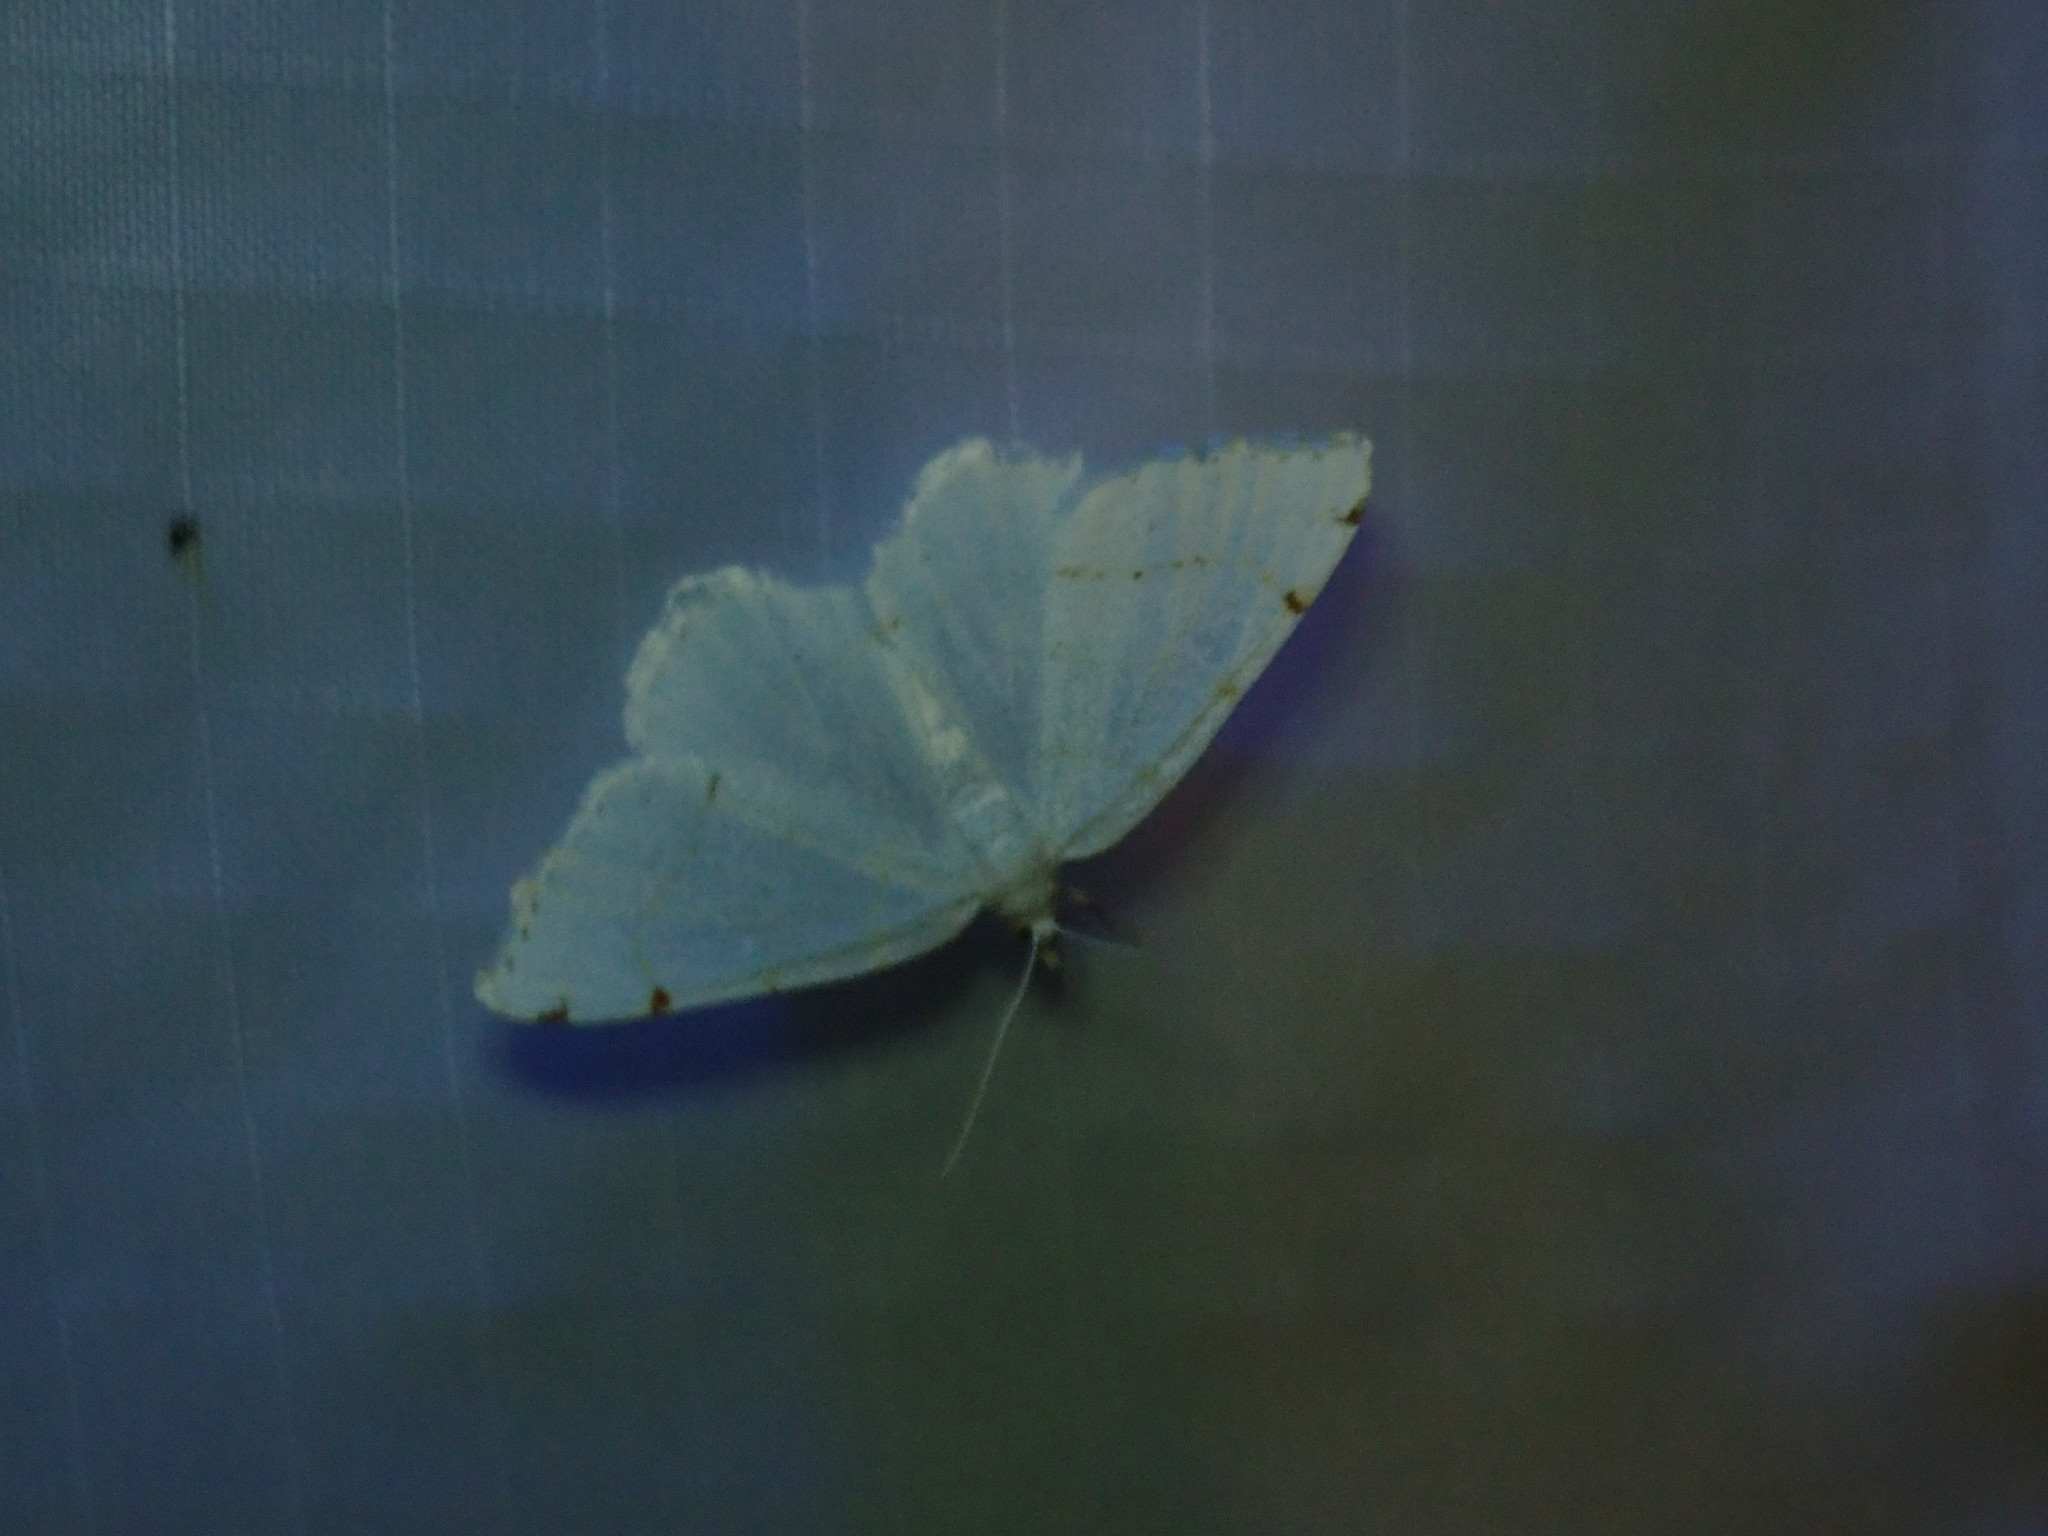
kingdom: Animalia
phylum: Arthropoda
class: Insecta
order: Lepidoptera
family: Geometridae
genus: Macaria
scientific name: Macaria pustularia
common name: Lesser maple spanworm moth
